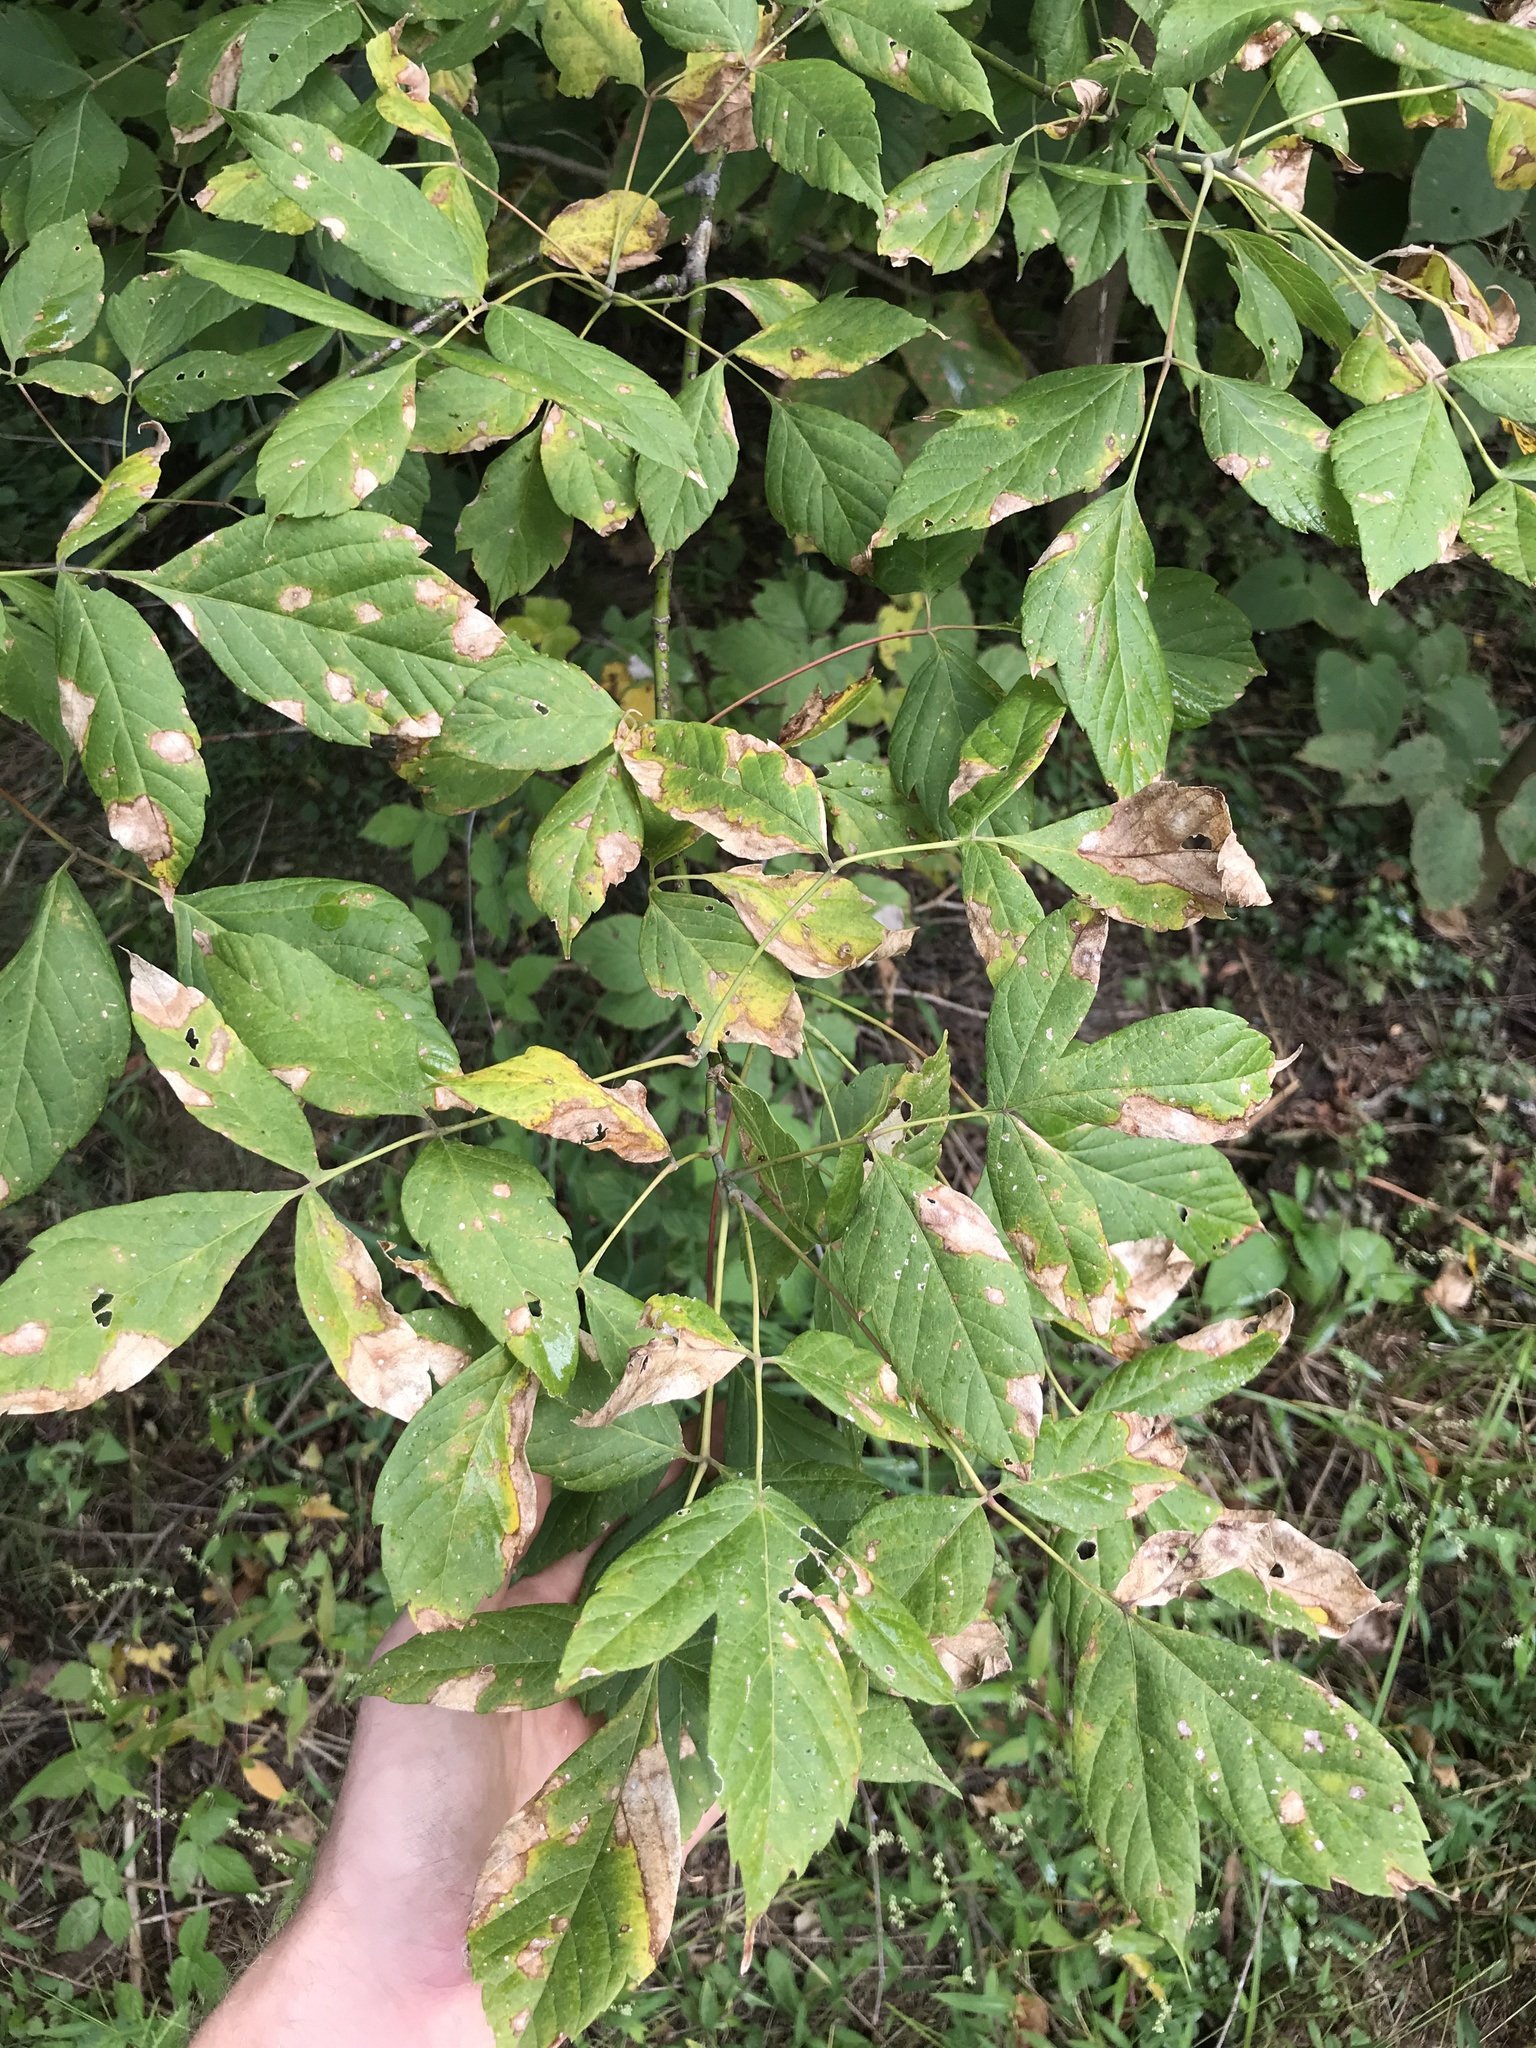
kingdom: Plantae
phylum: Tracheophyta
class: Magnoliopsida
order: Sapindales
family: Sapindaceae
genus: Acer
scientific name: Acer negundo
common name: Ashleaf maple
